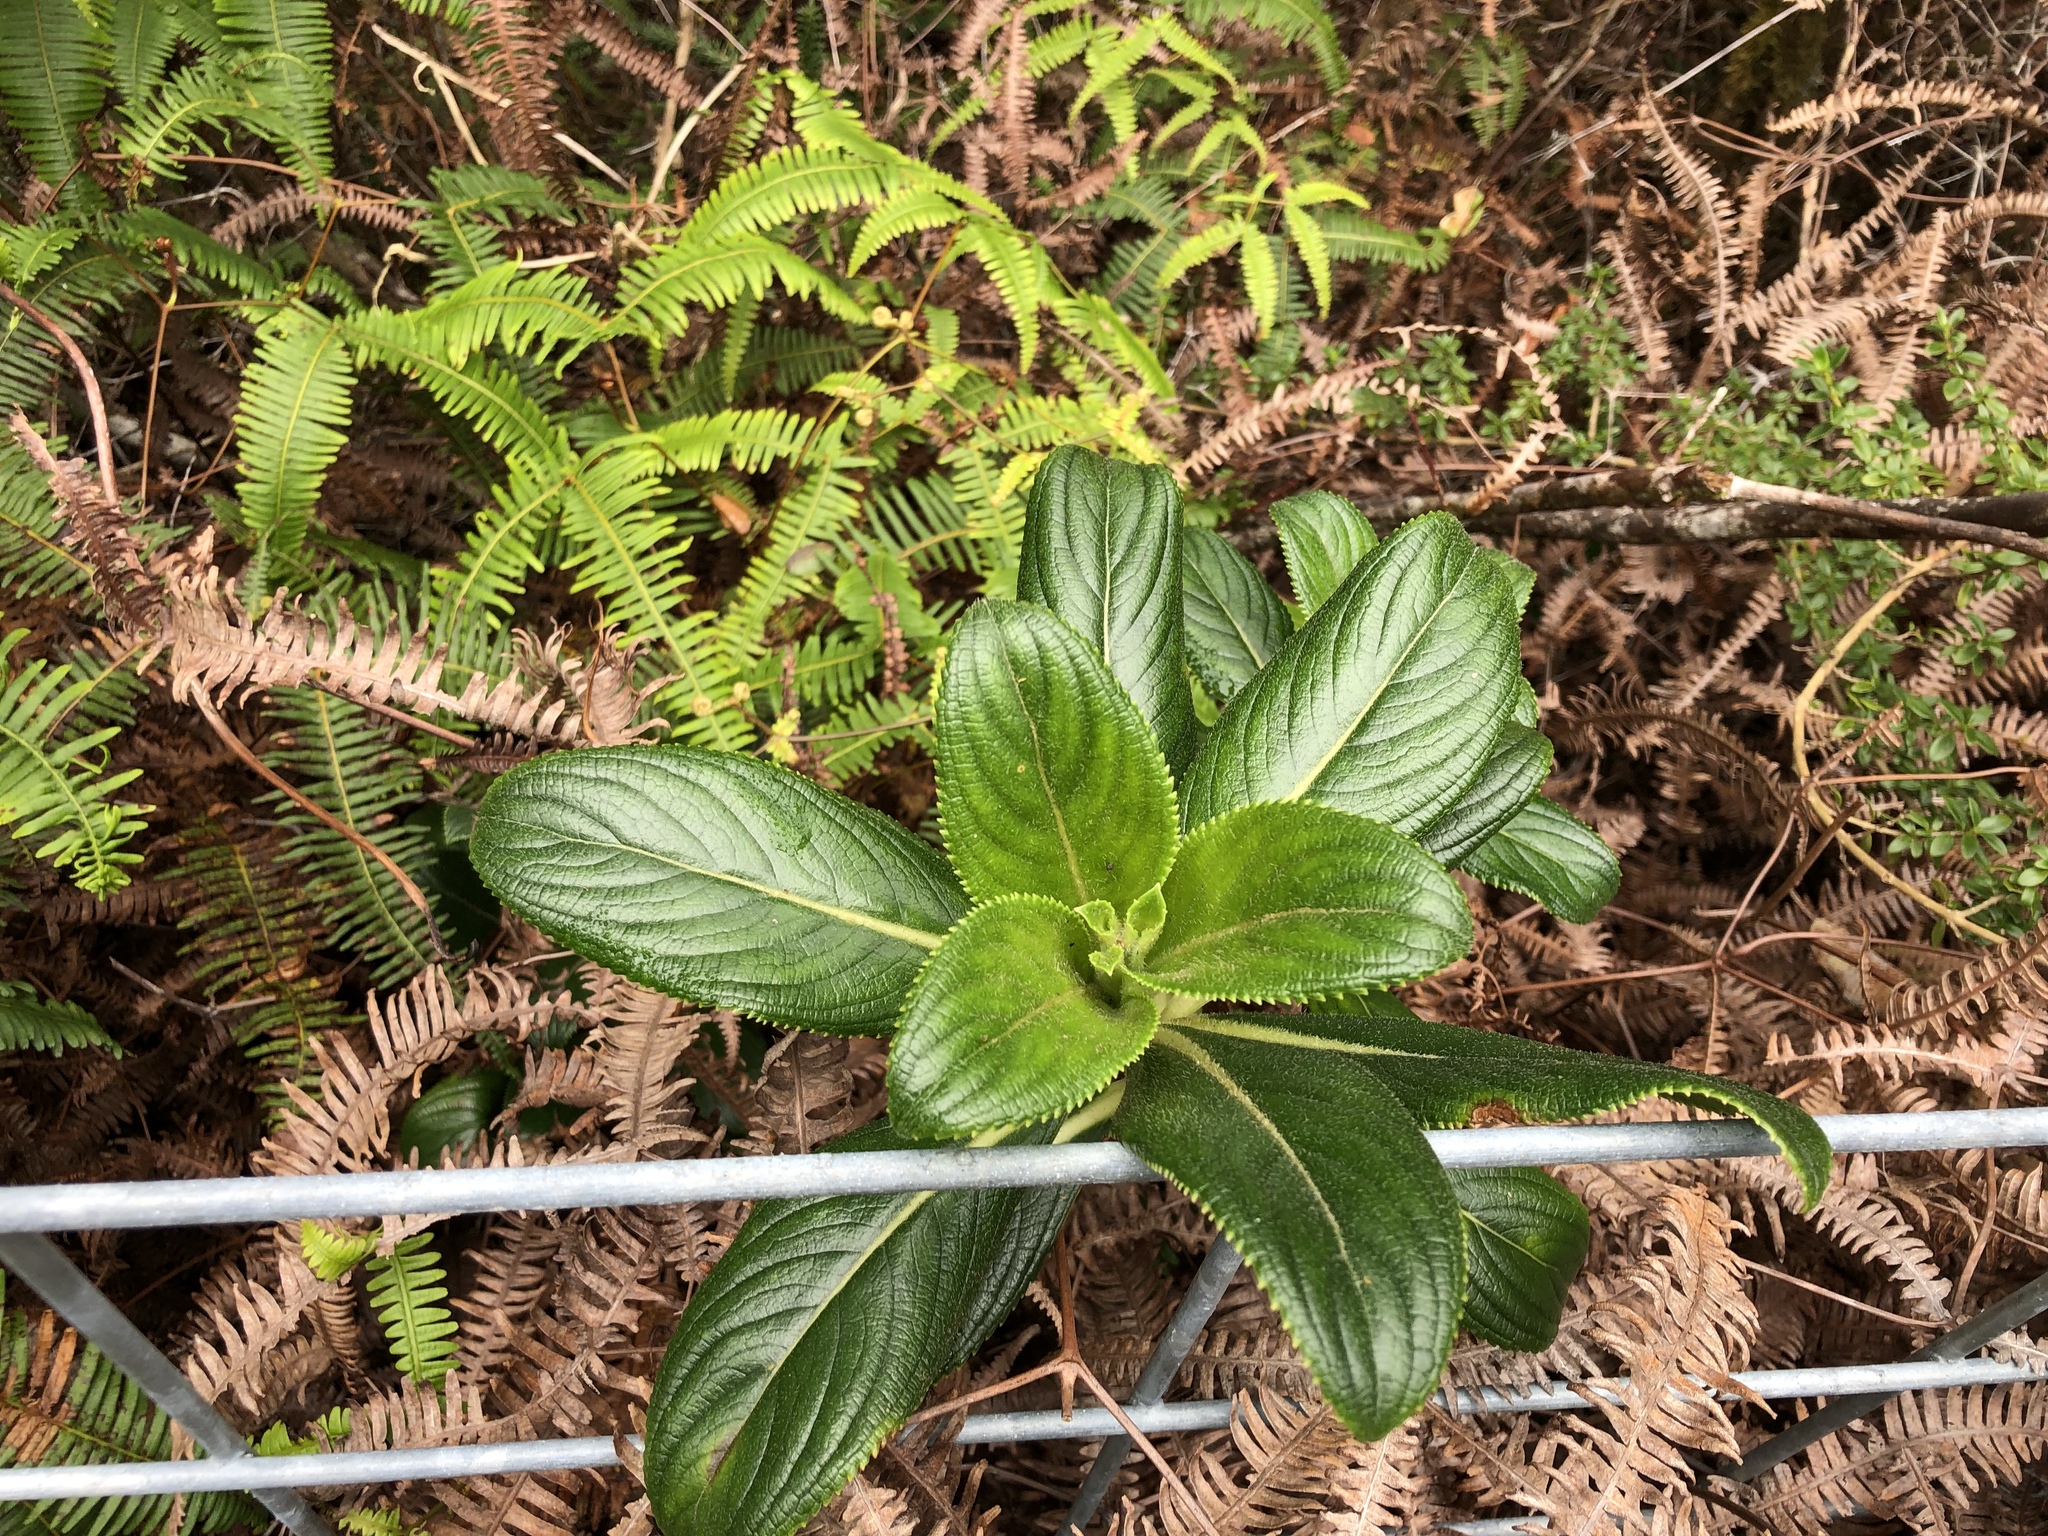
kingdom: Plantae
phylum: Tracheophyta
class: Magnoliopsida
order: Cornales
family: Hydrangeaceae
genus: Hydrangea
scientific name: Hydrangea arguta
